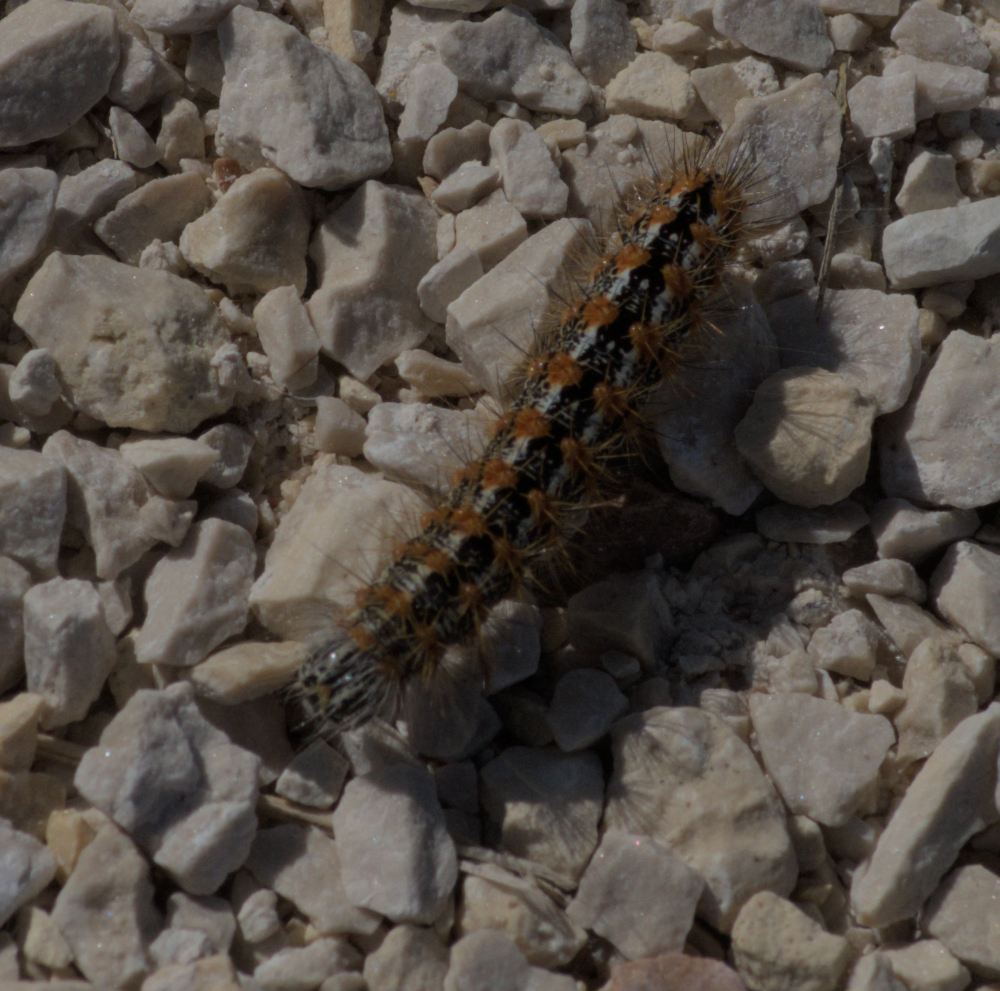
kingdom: Animalia
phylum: Arthropoda
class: Insecta
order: Lepidoptera
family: Noctuidae
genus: Acronicta
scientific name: Acronicta insularis
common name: Henry's marsh moth
